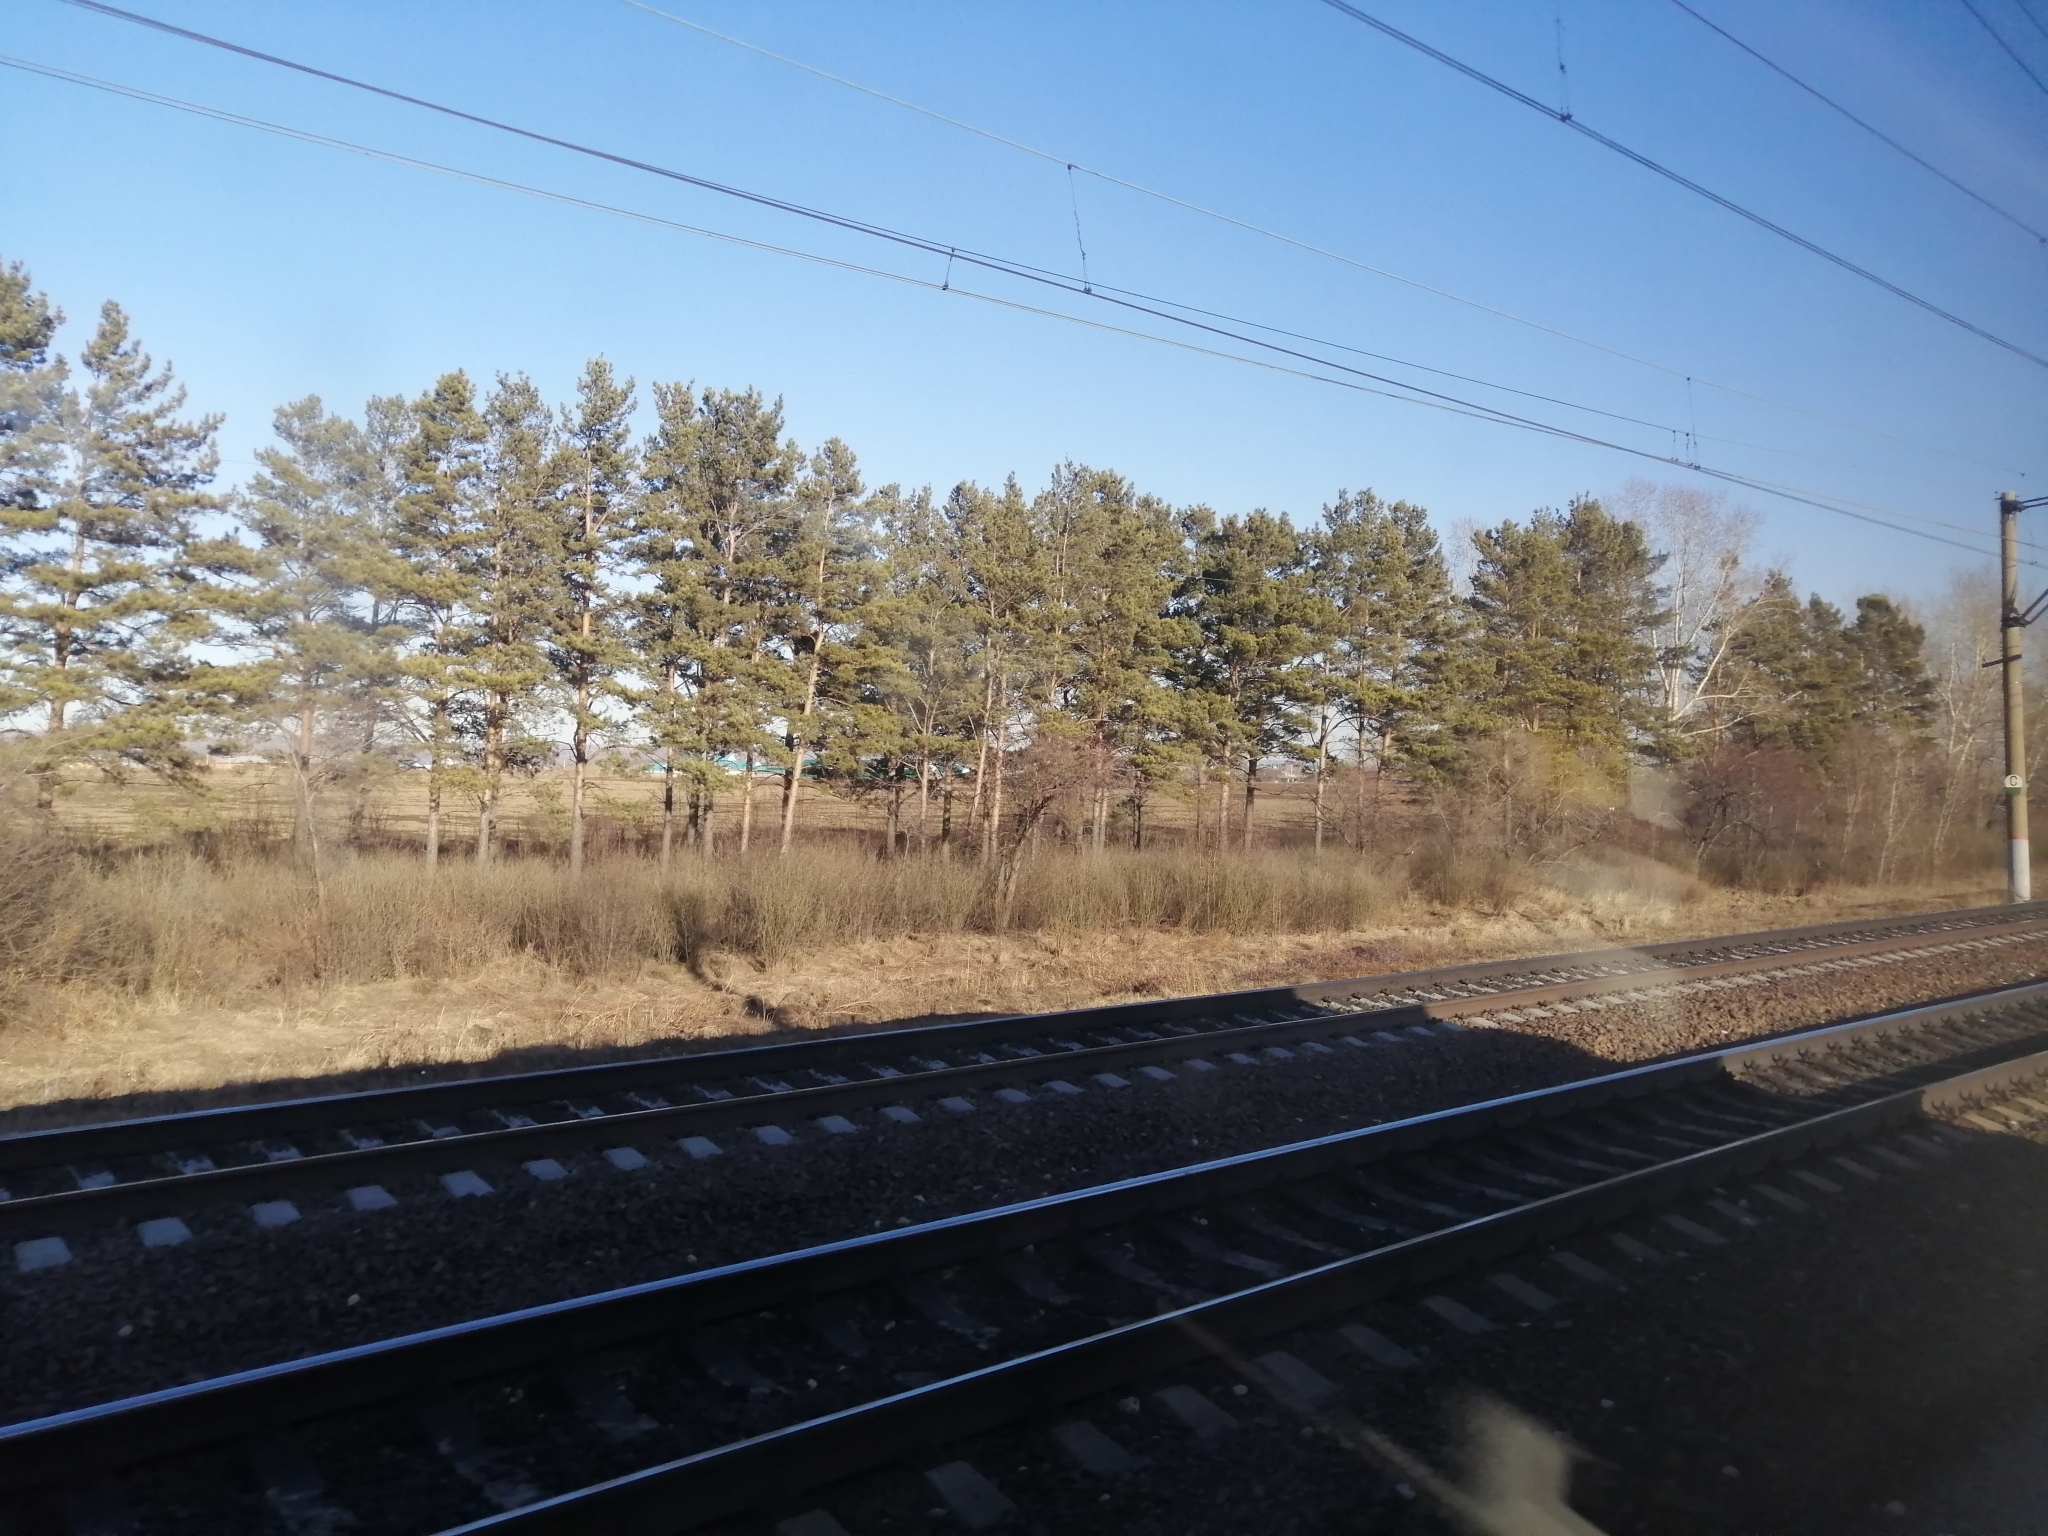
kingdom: Plantae
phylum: Tracheophyta
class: Pinopsida
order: Pinales
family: Pinaceae
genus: Pinus
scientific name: Pinus sylvestris
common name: Scots pine
